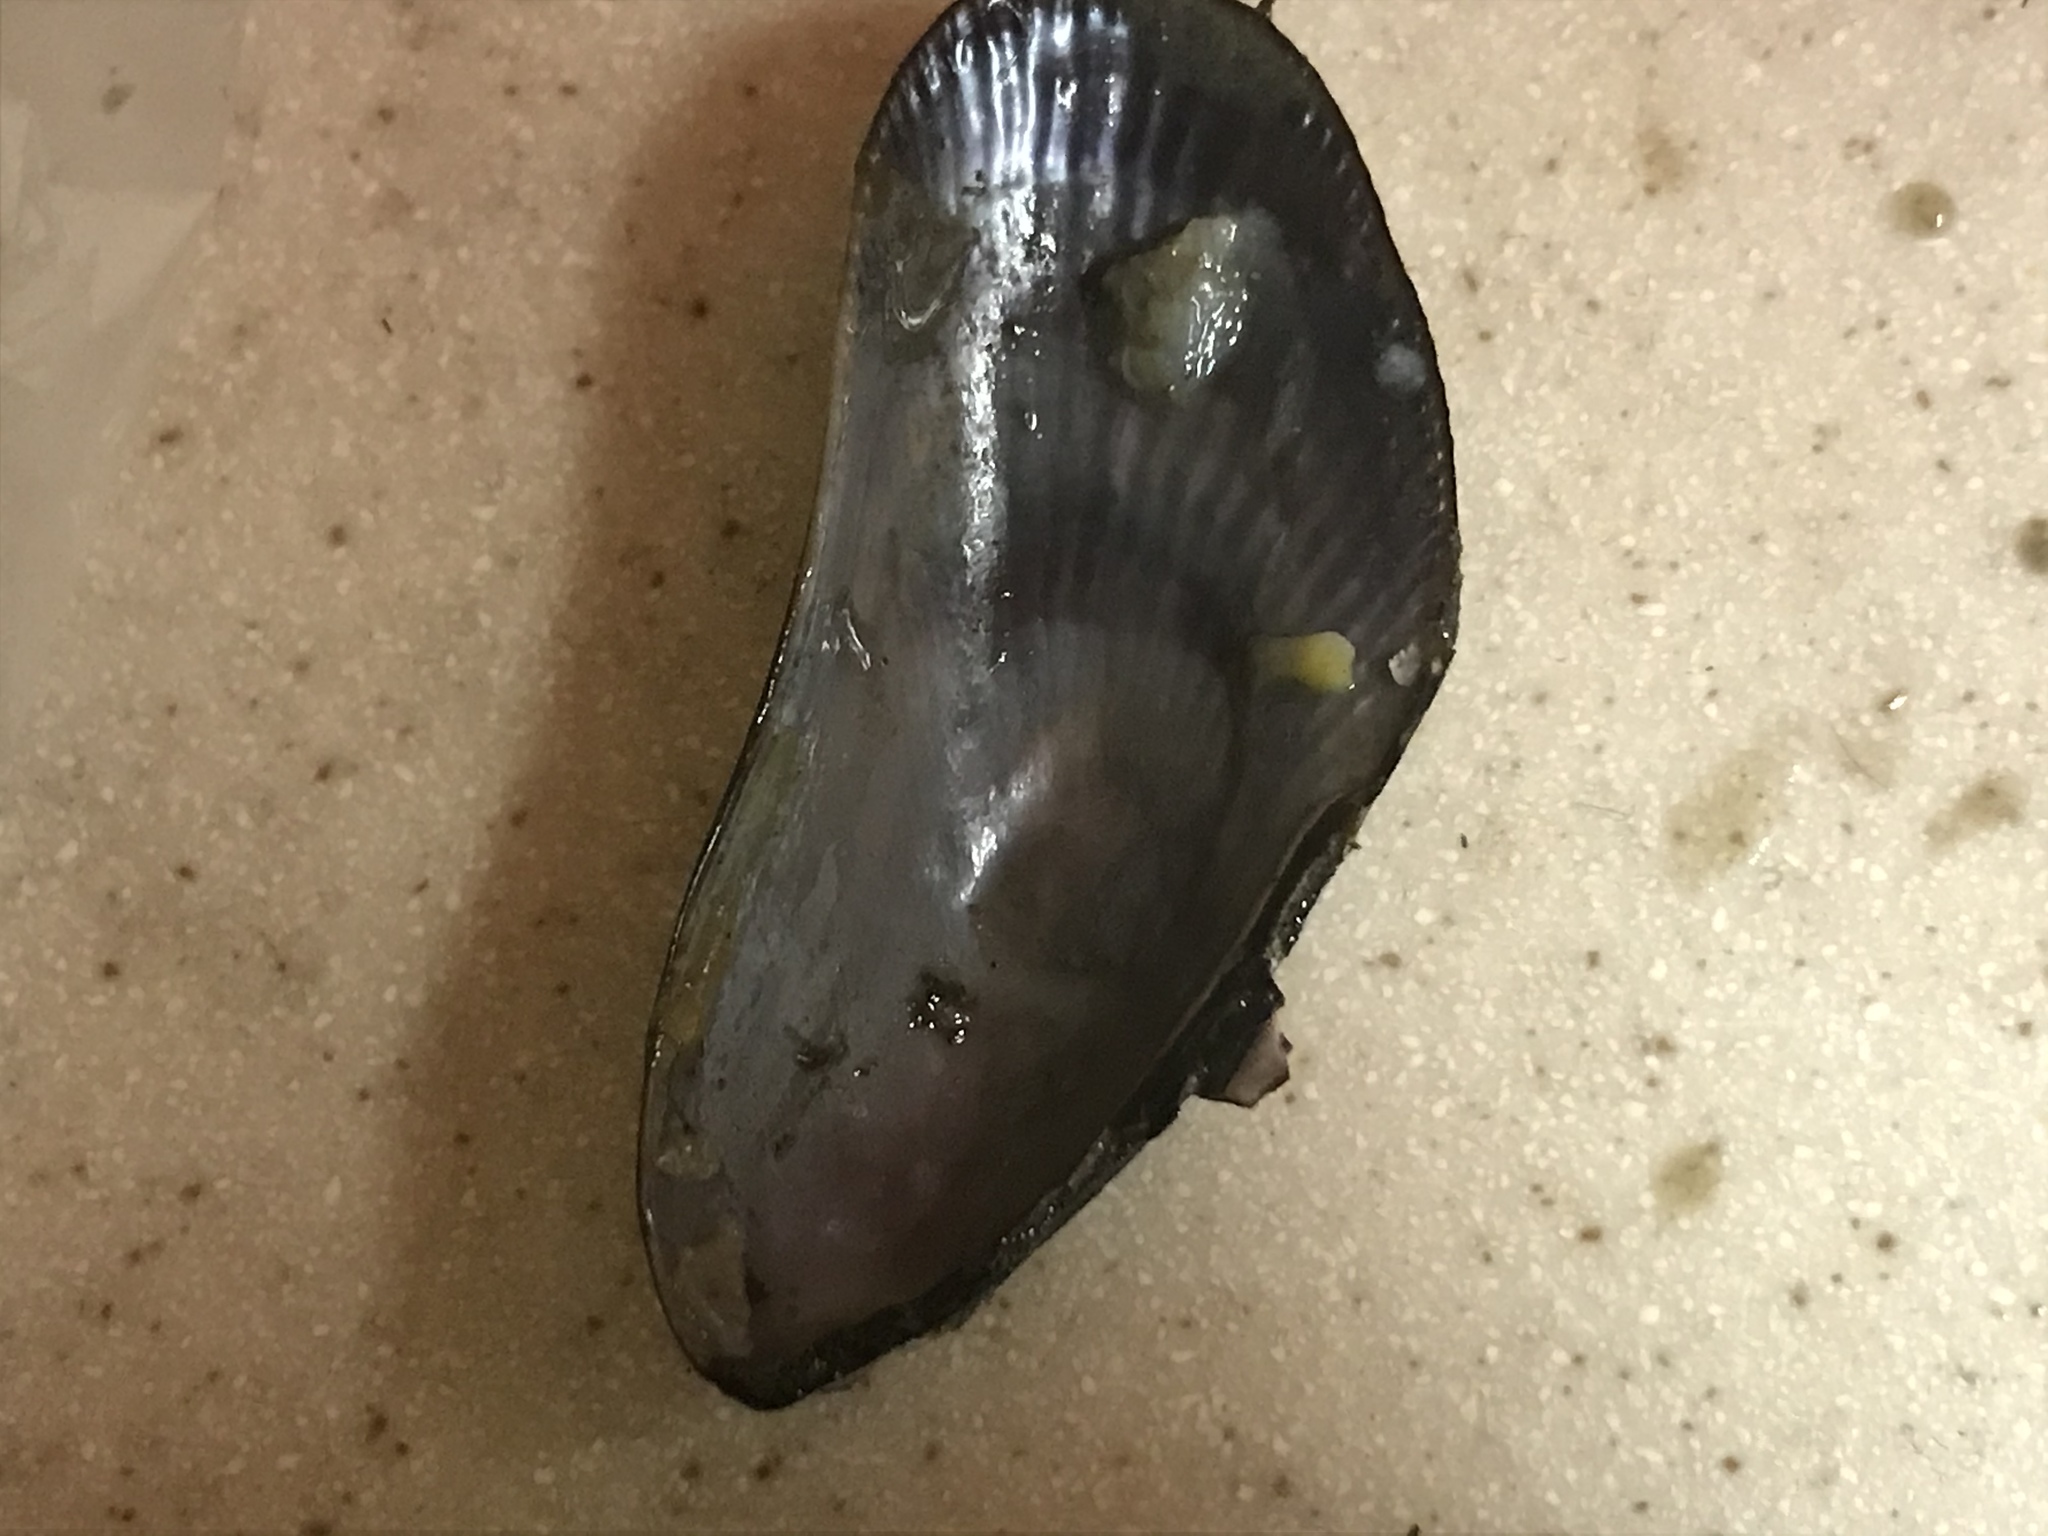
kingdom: Animalia
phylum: Mollusca
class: Bivalvia
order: Mytilida
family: Mytilidae
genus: Geukensia
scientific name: Geukensia demissa
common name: Ribbed mussel
